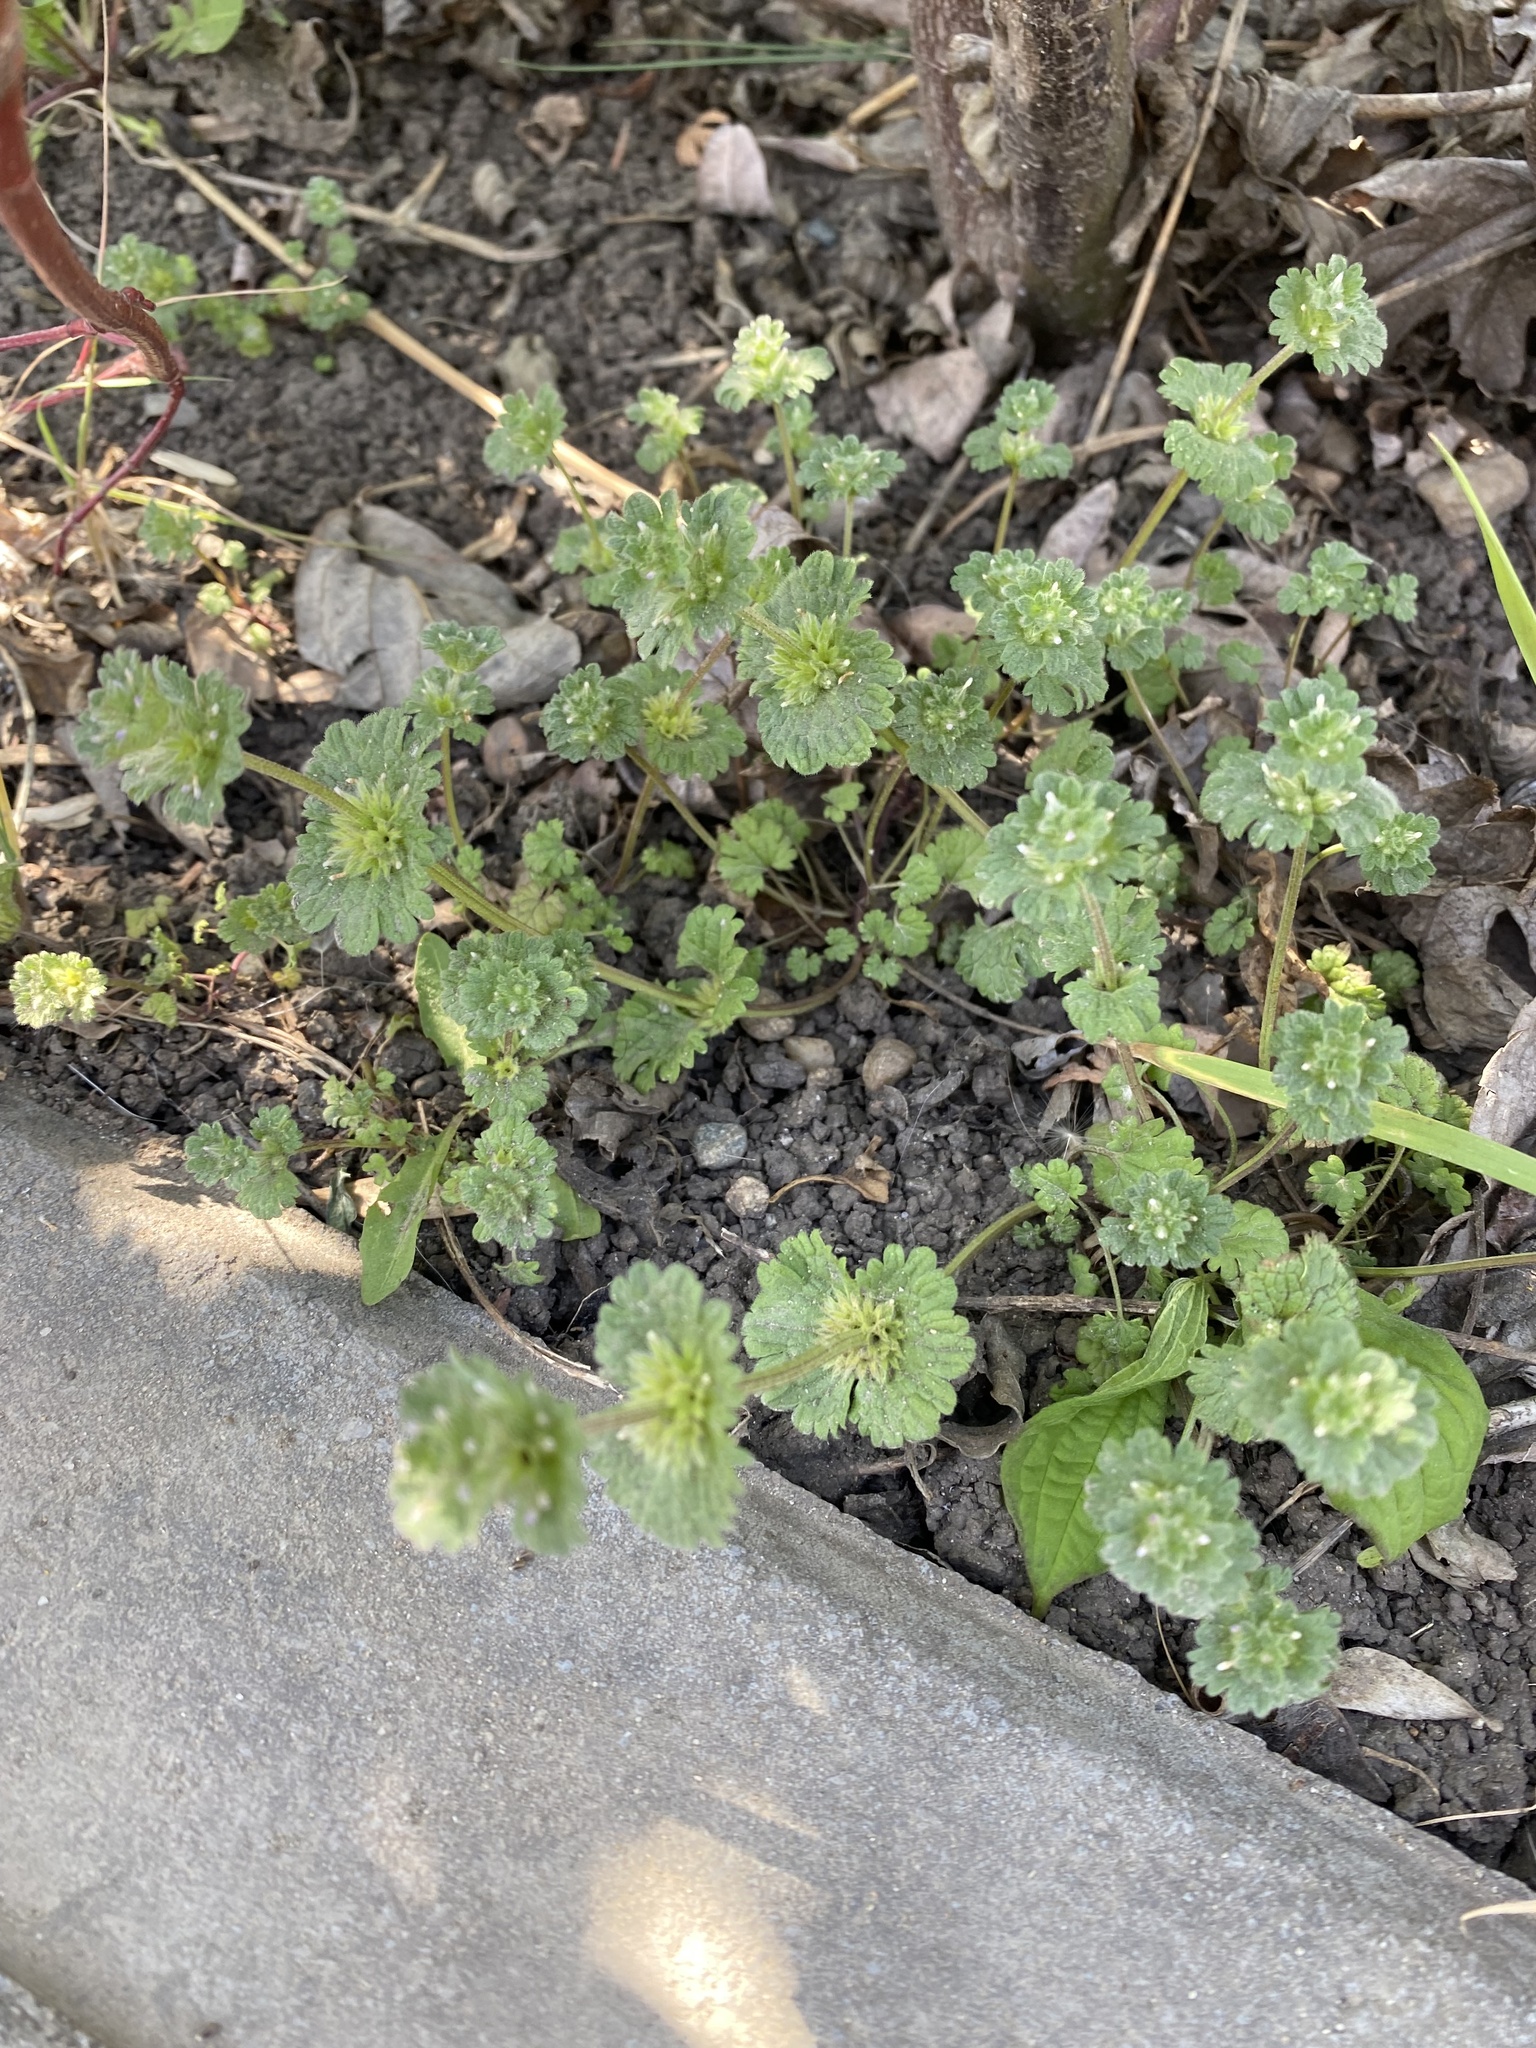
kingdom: Plantae
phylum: Tracheophyta
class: Magnoliopsida
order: Lamiales
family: Lamiaceae
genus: Lamium
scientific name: Lamium amplexicaule
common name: Henbit dead-nettle
